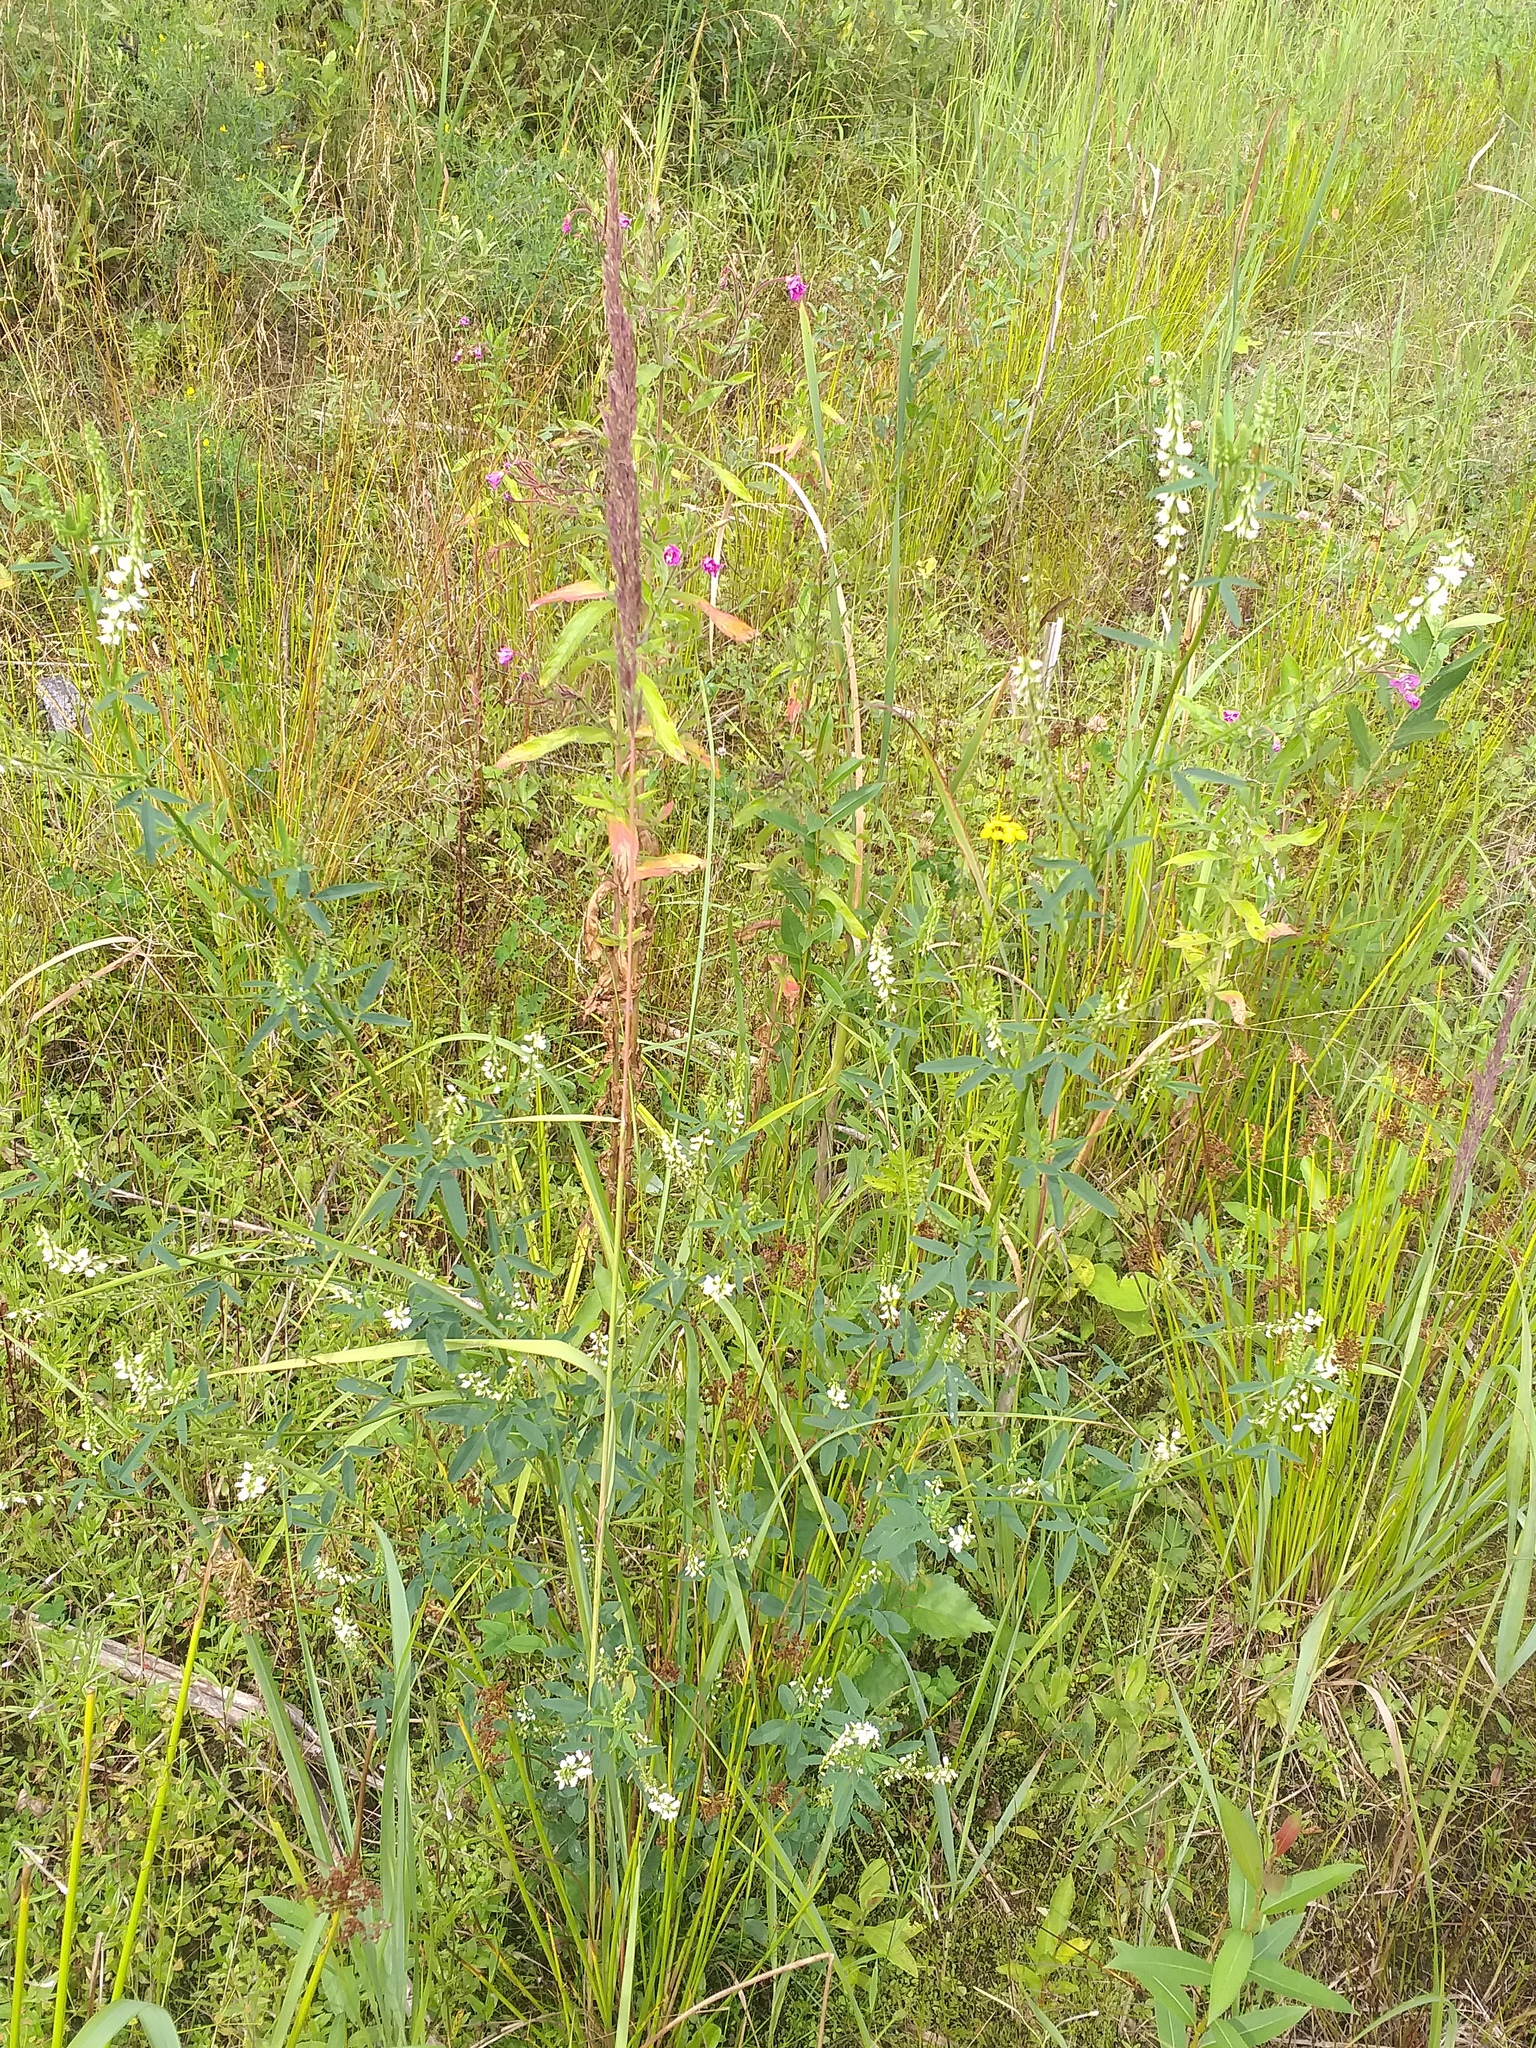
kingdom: Plantae
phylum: Tracheophyta
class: Magnoliopsida
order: Fabales
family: Fabaceae
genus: Melilotus
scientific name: Melilotus albus
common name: White melilot
